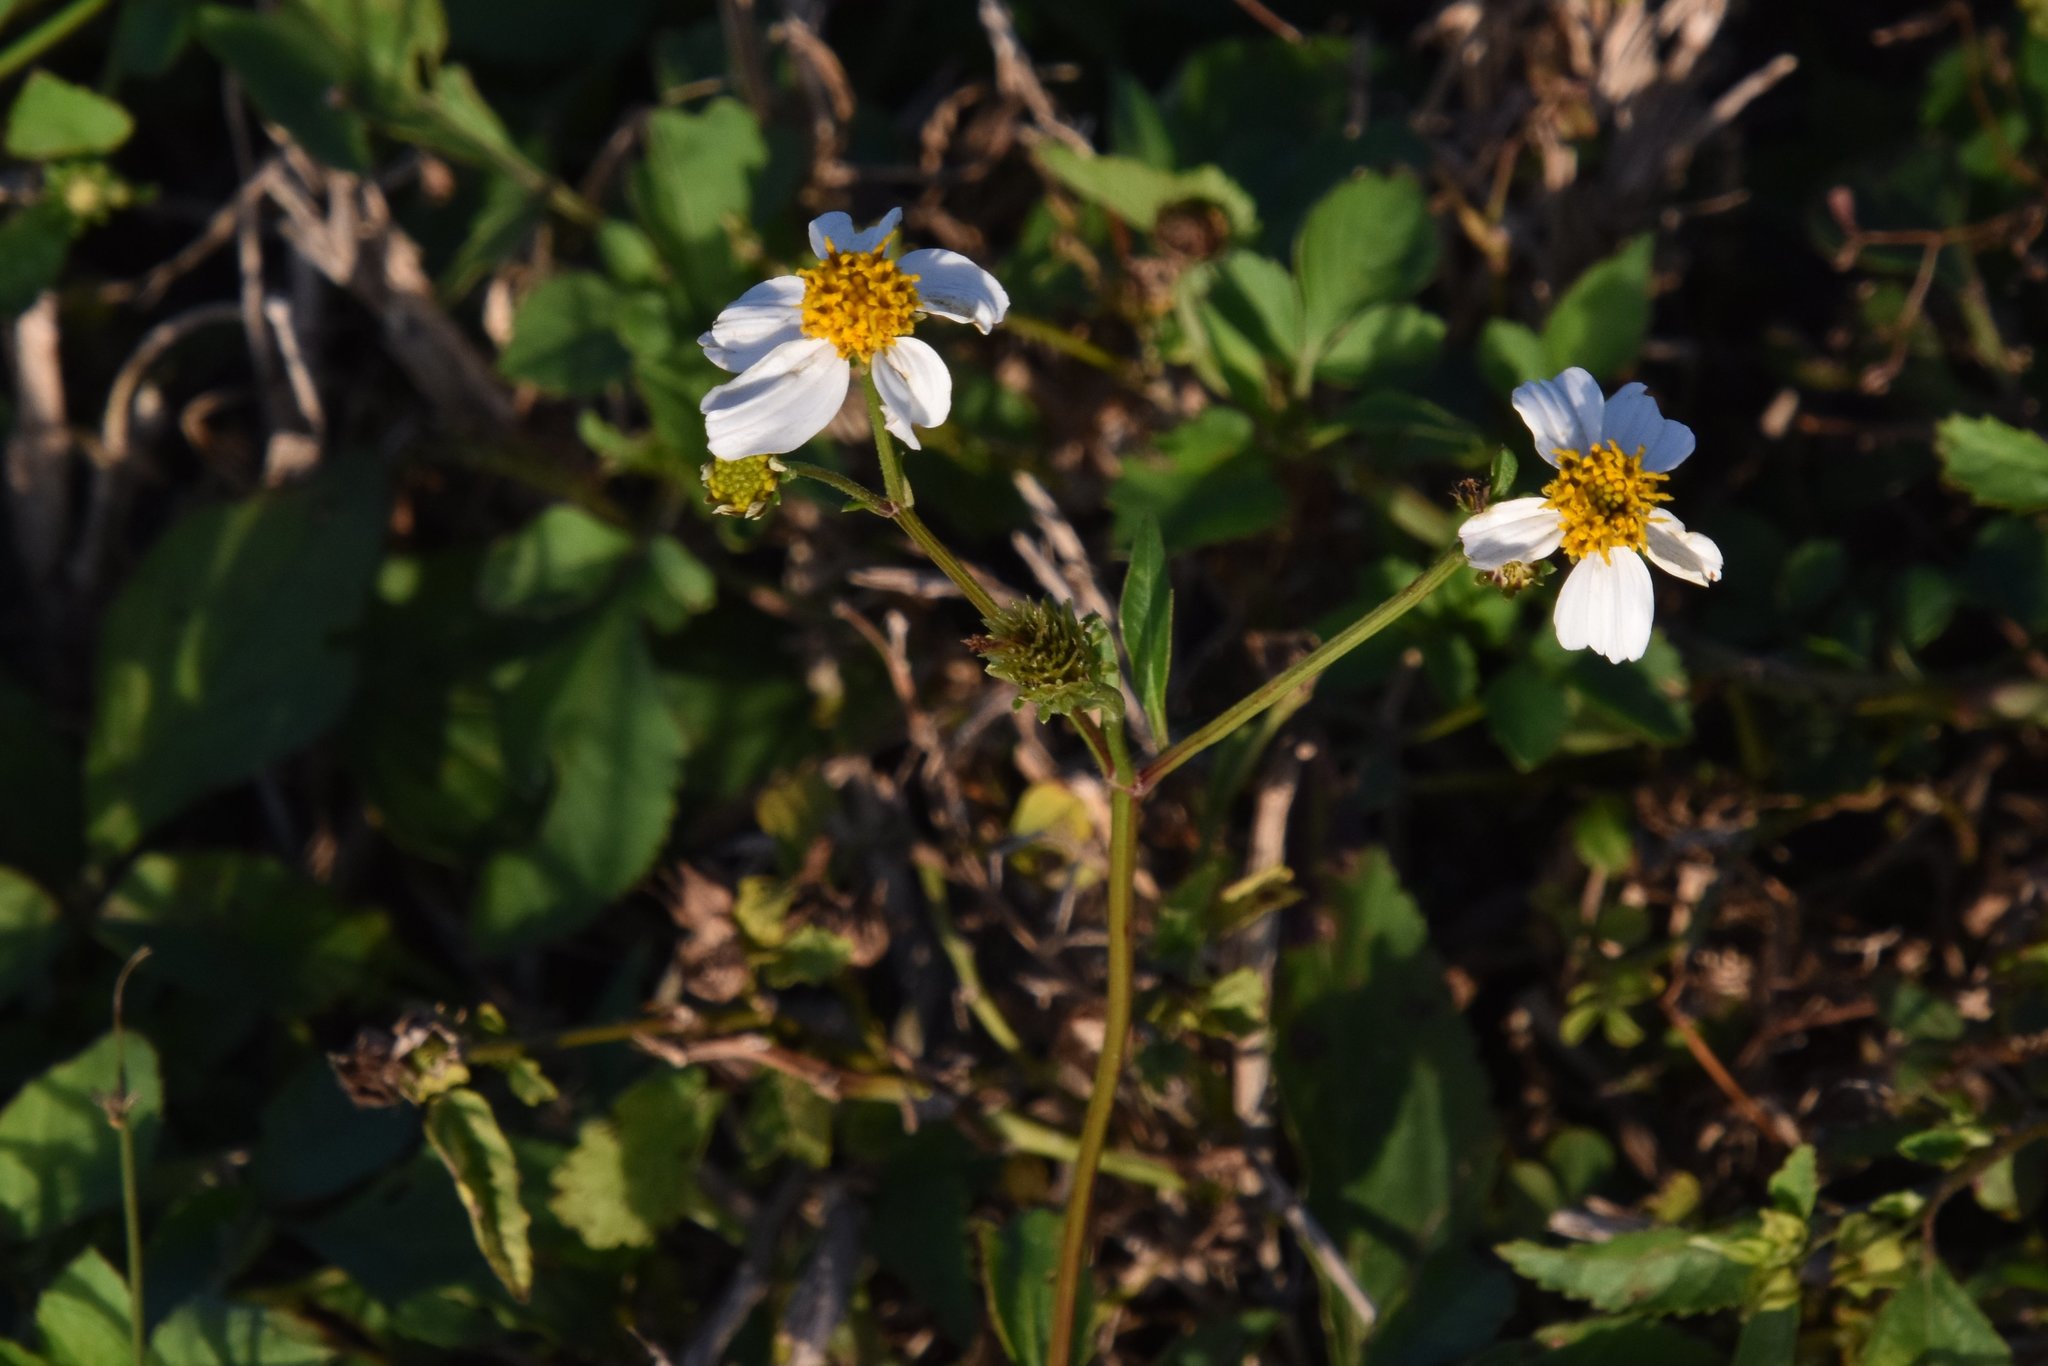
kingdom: Plantae
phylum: Tracheophyta
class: Magnoliopsida
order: Asterales
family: Asteraceae
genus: Bidens
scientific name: Bidens alba
